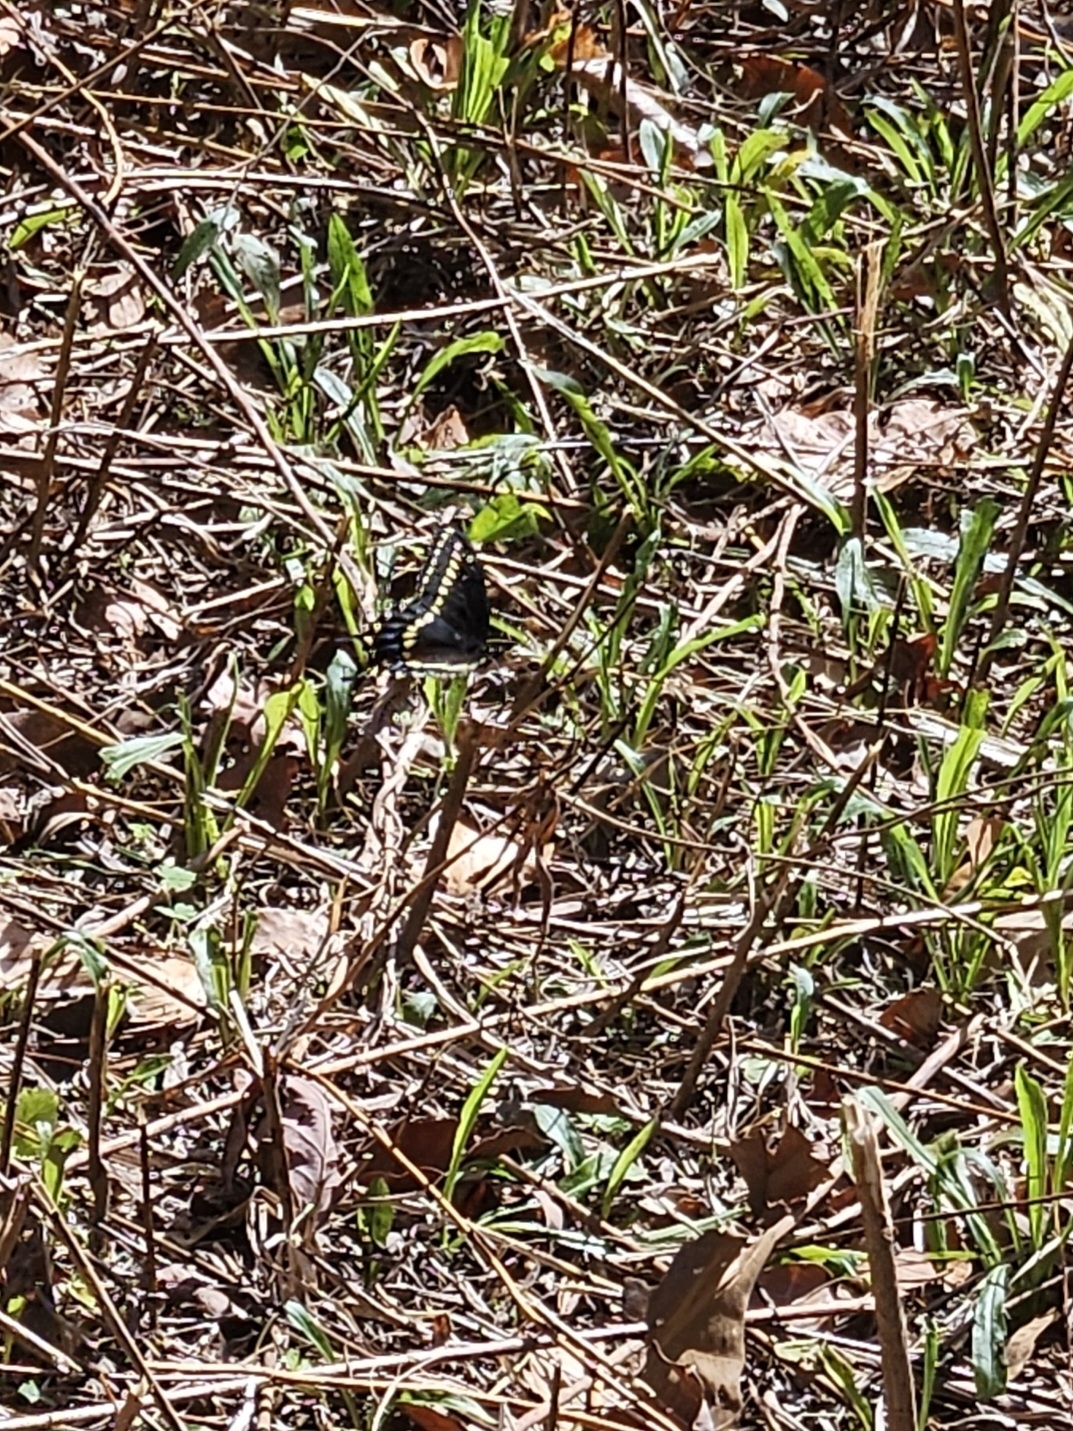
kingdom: Animalia
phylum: Arthropoda
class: Insecta
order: Lepidoptera
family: Papilionidae
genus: Papilio
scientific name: Papilio polyxenes
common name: Black swallowtail
